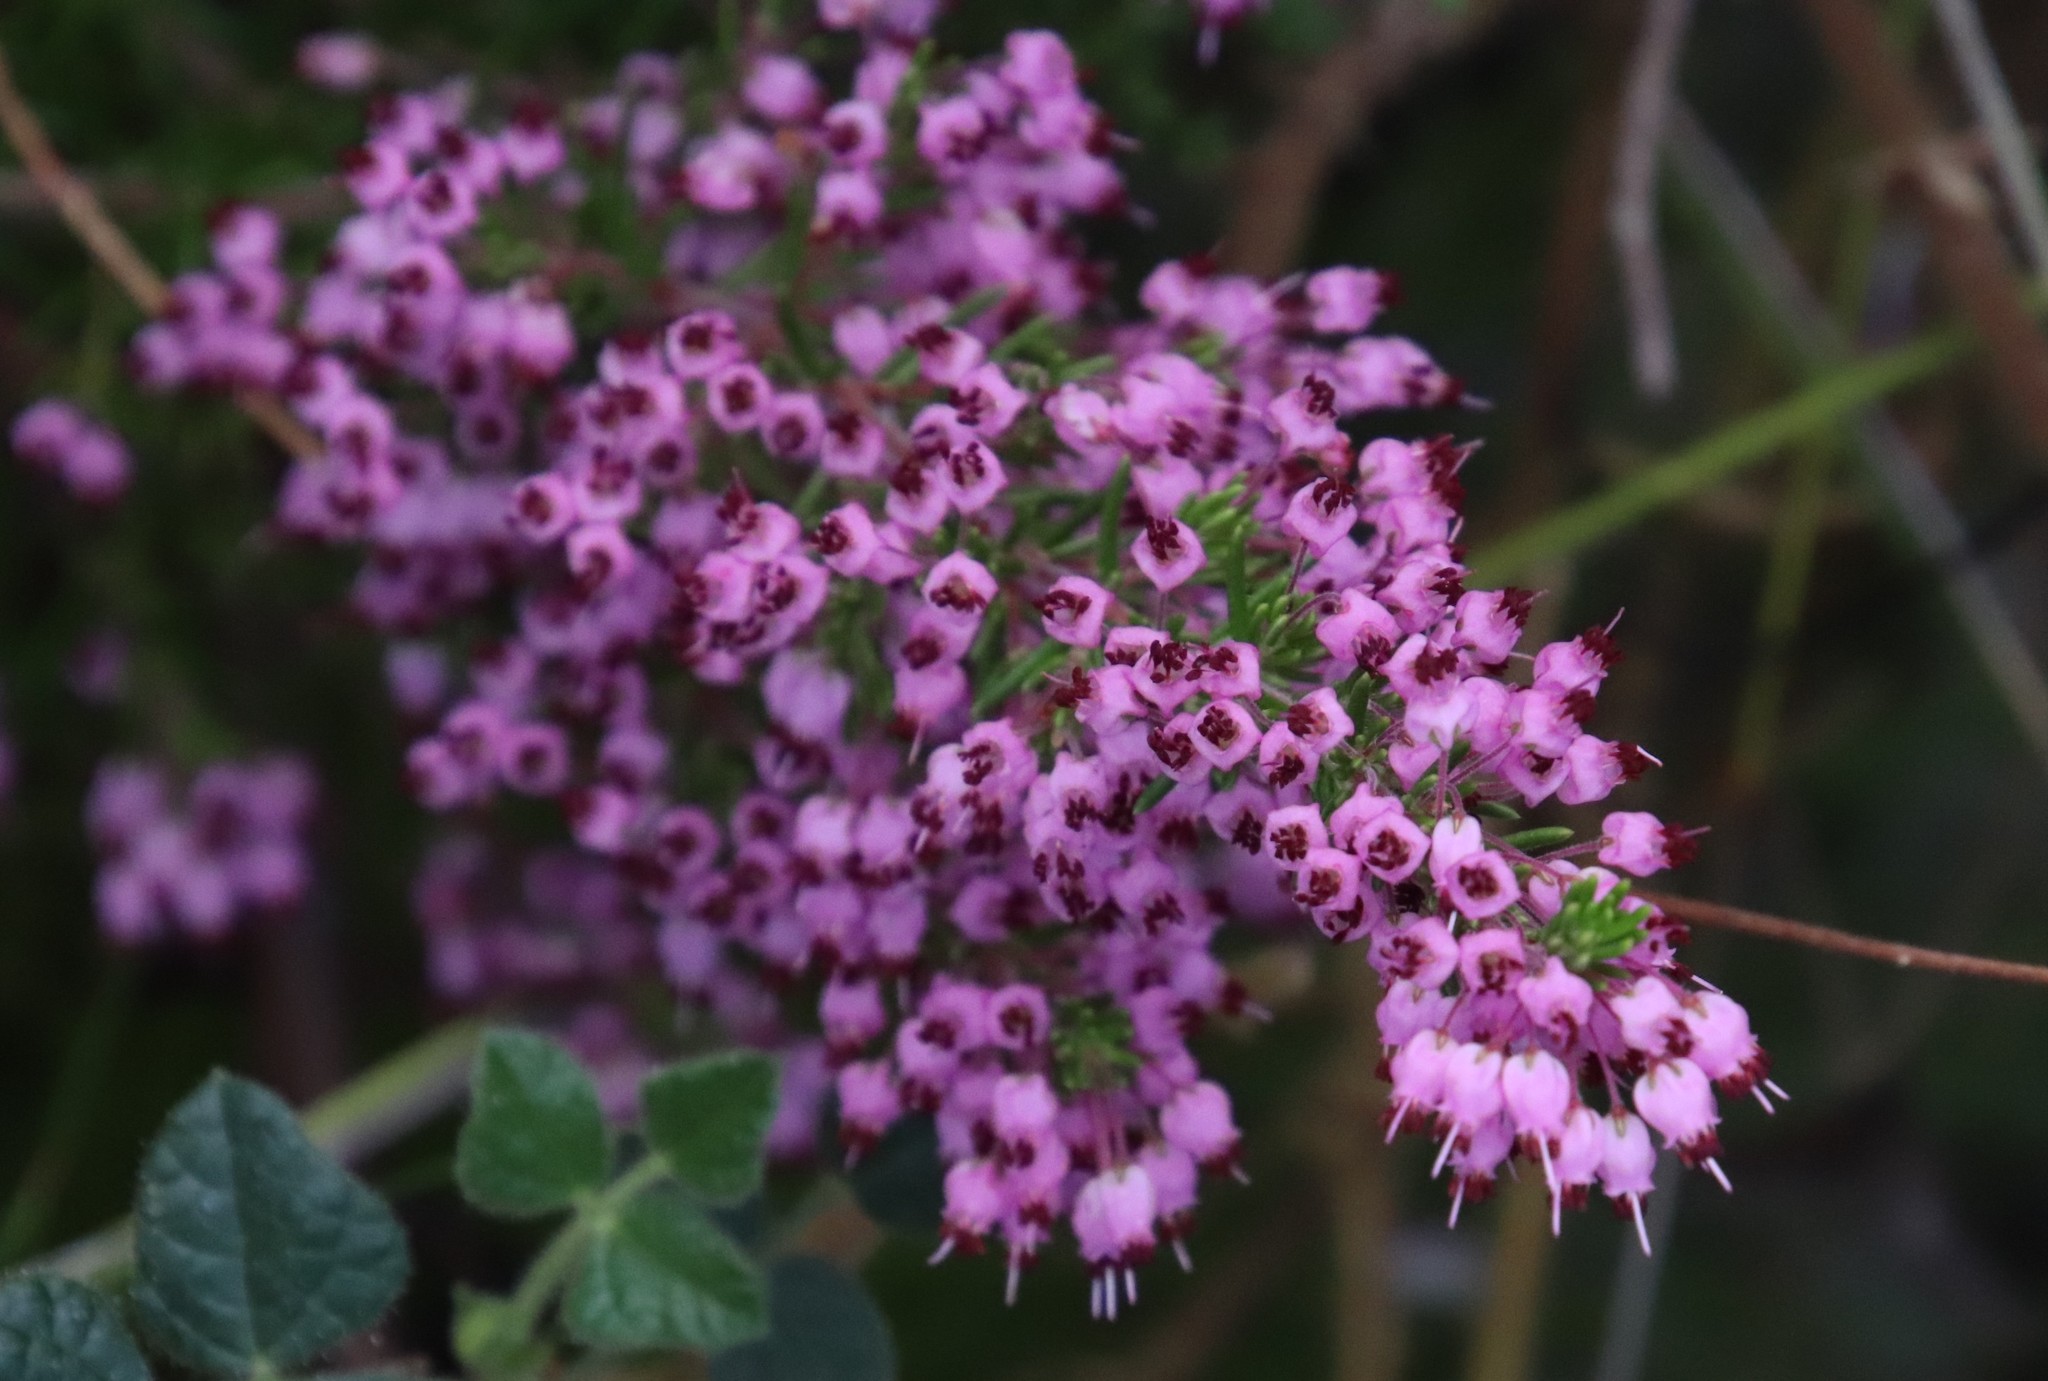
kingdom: Plantae
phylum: Tracheophyta
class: Magnoliopsida
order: Ericales
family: Ericaceae
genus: Erica
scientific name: Erica nudiflora
